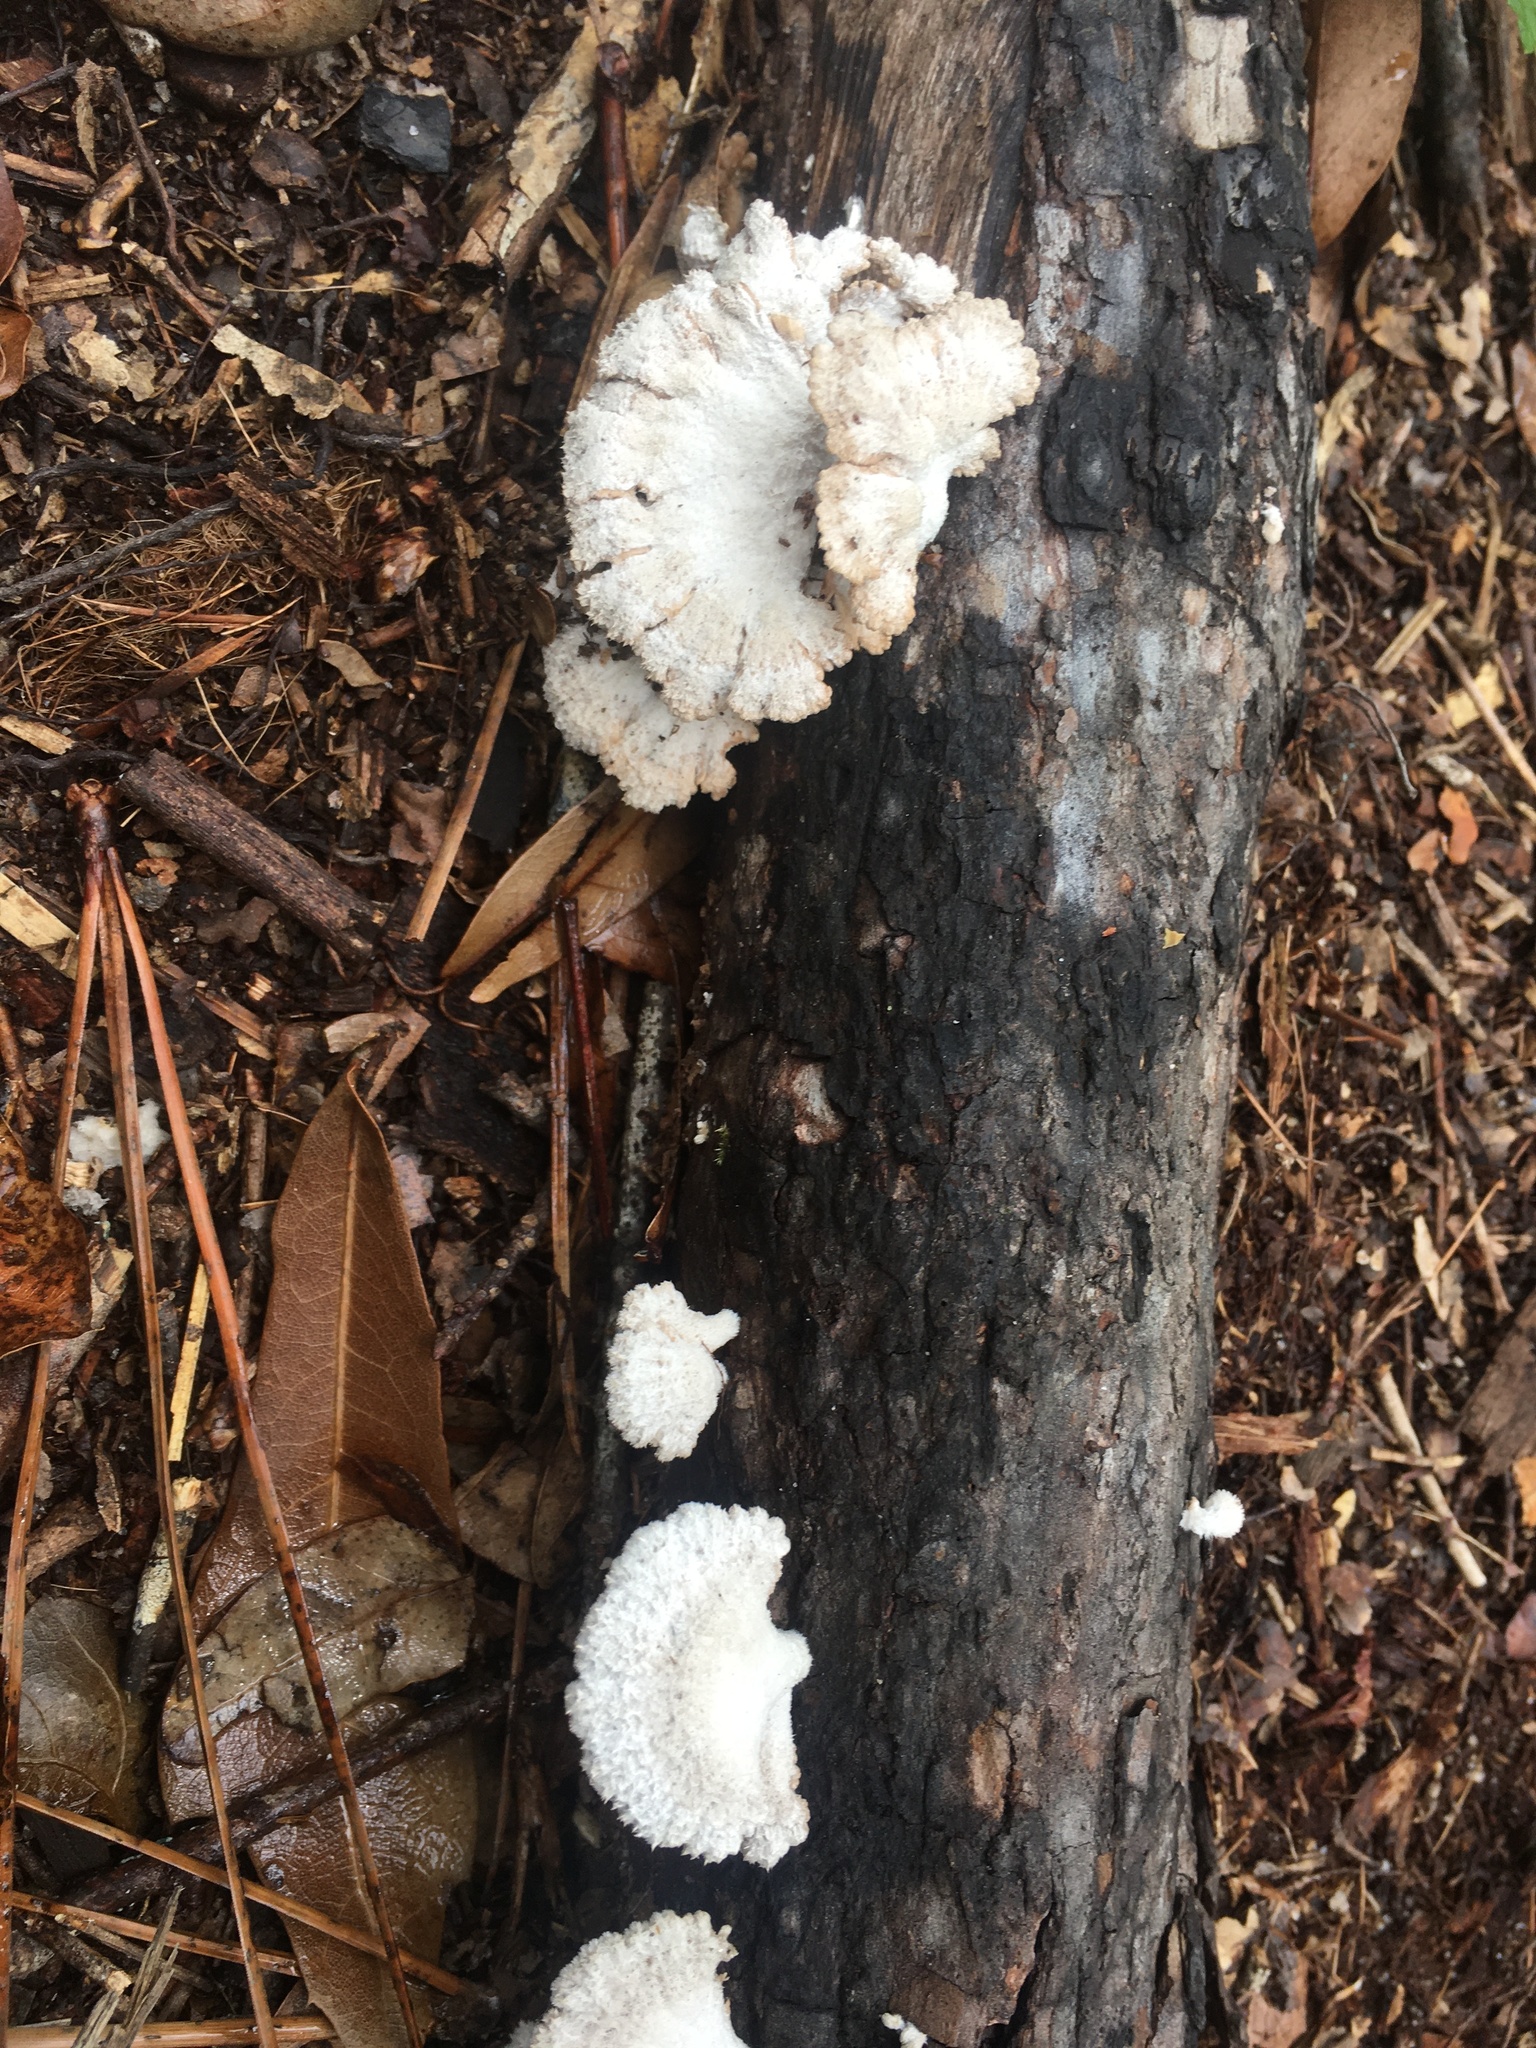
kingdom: Fungi
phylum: Basidiomycota
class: Agaricomycetes
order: Agaricales
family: Schizophyllaceae
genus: Schizophyllum
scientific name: Schizophyllum commune
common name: Common porecrust
